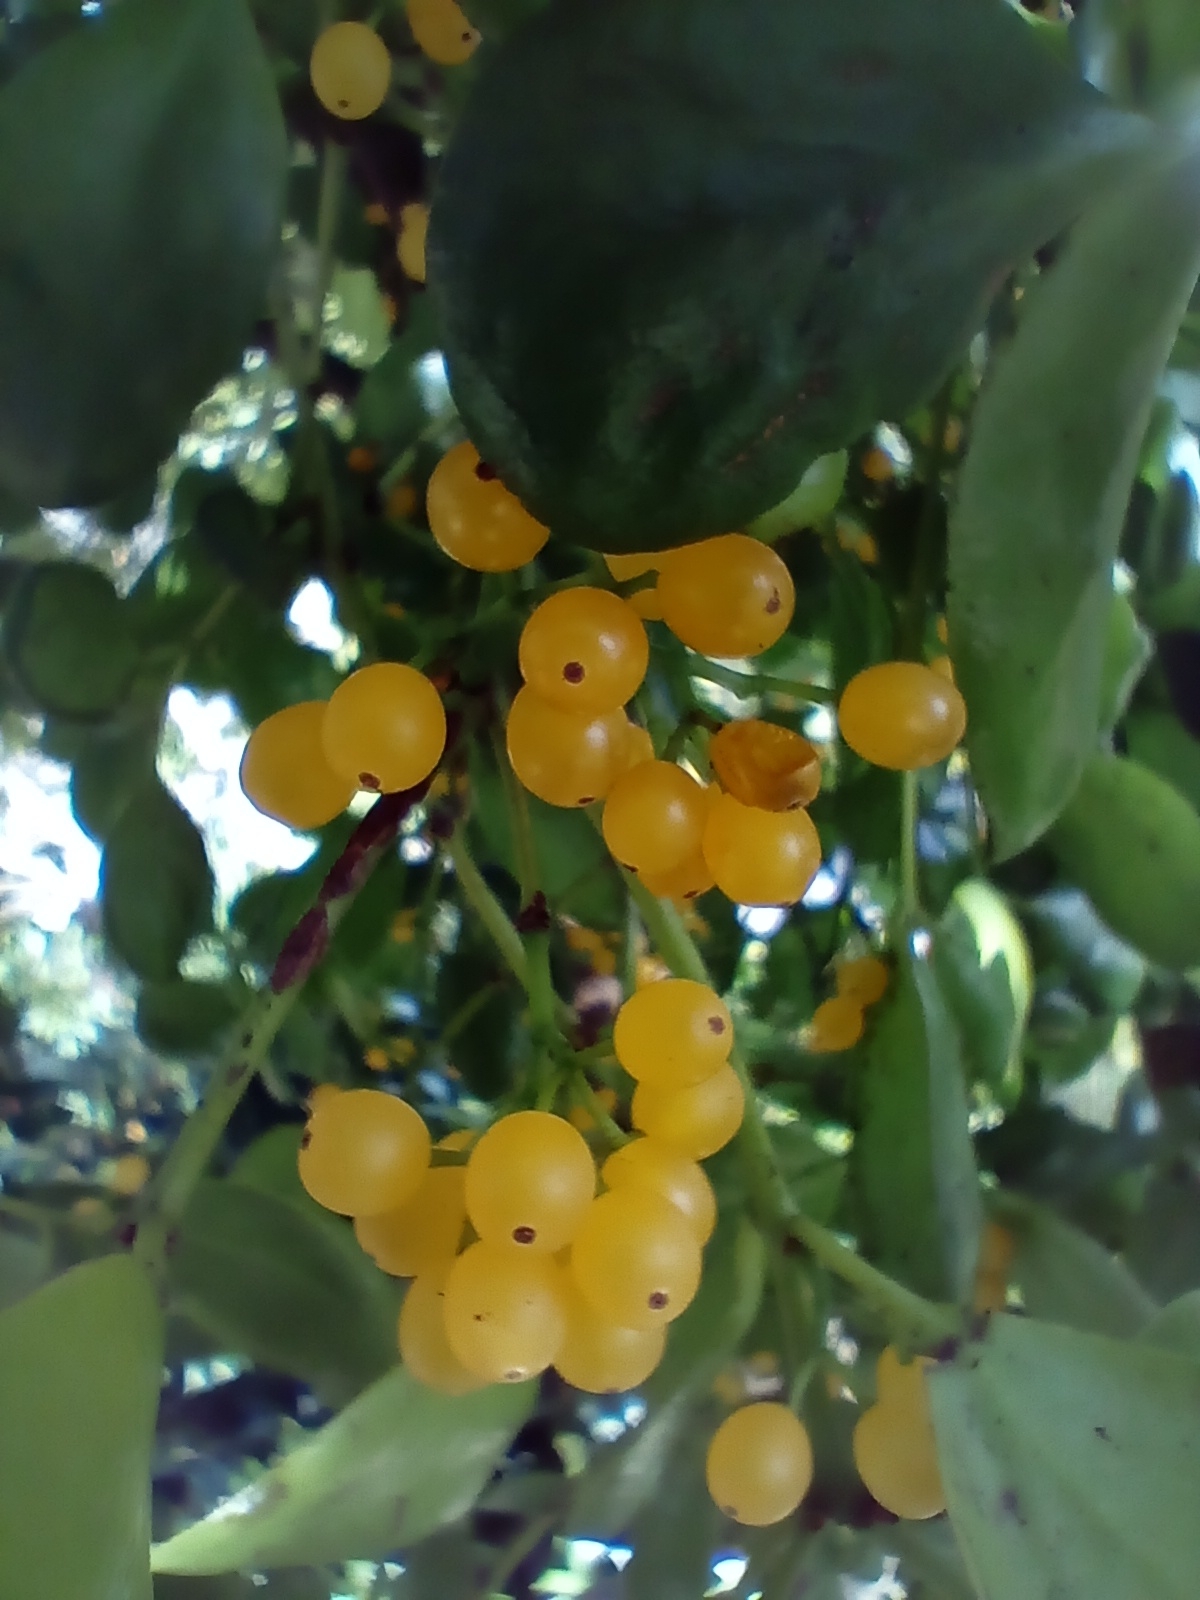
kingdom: Plantae
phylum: Tracheophyta
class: Magnoliopsida
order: Santalales
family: Loranthaceae
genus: Ileostylus
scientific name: Ileostylus micranthus
